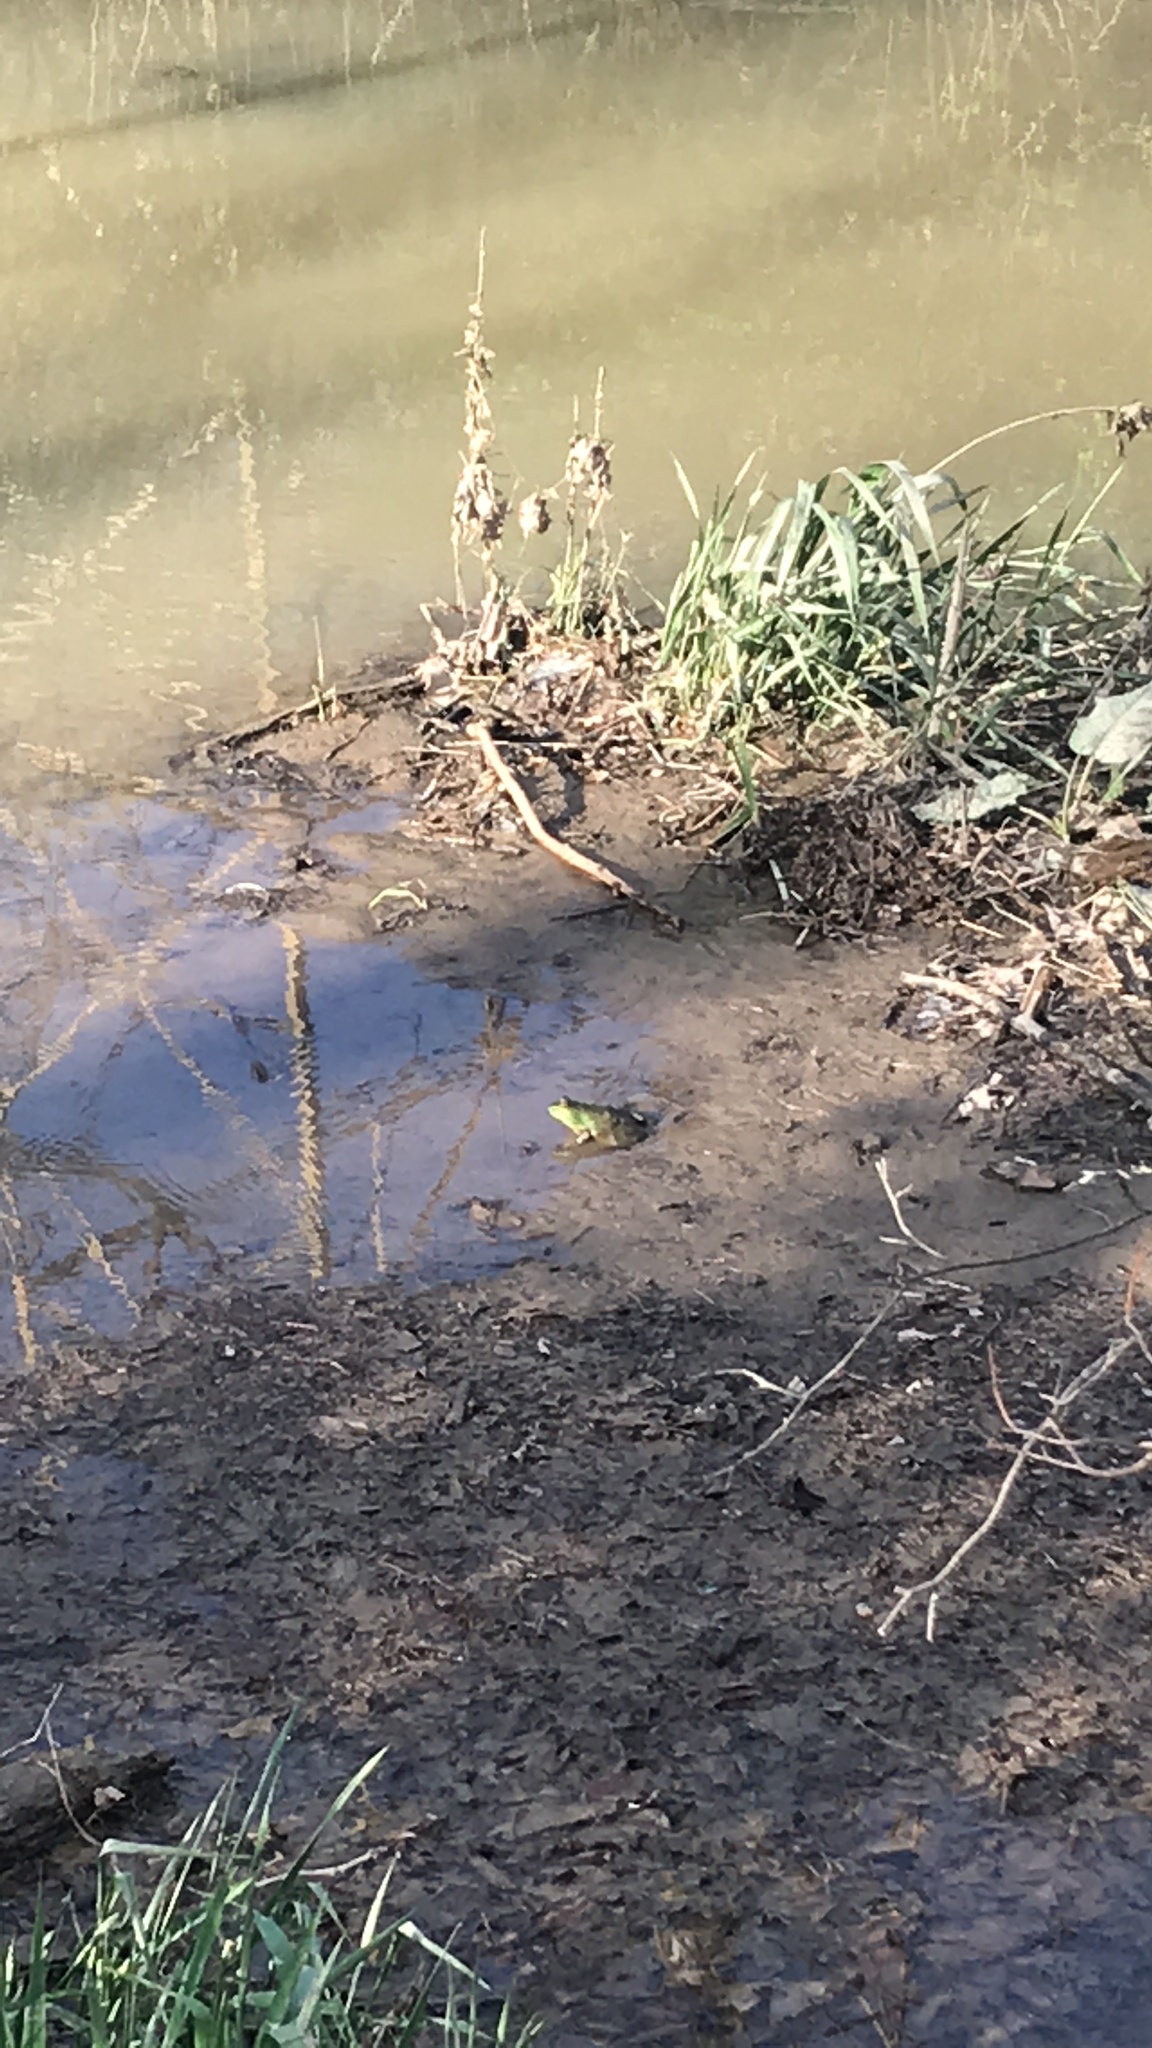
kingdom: Animalia
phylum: Chordata
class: Amphibia
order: Anura
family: Ranidae
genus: Lithobates
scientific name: Lithobates catesbeianus
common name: American bullfrog
